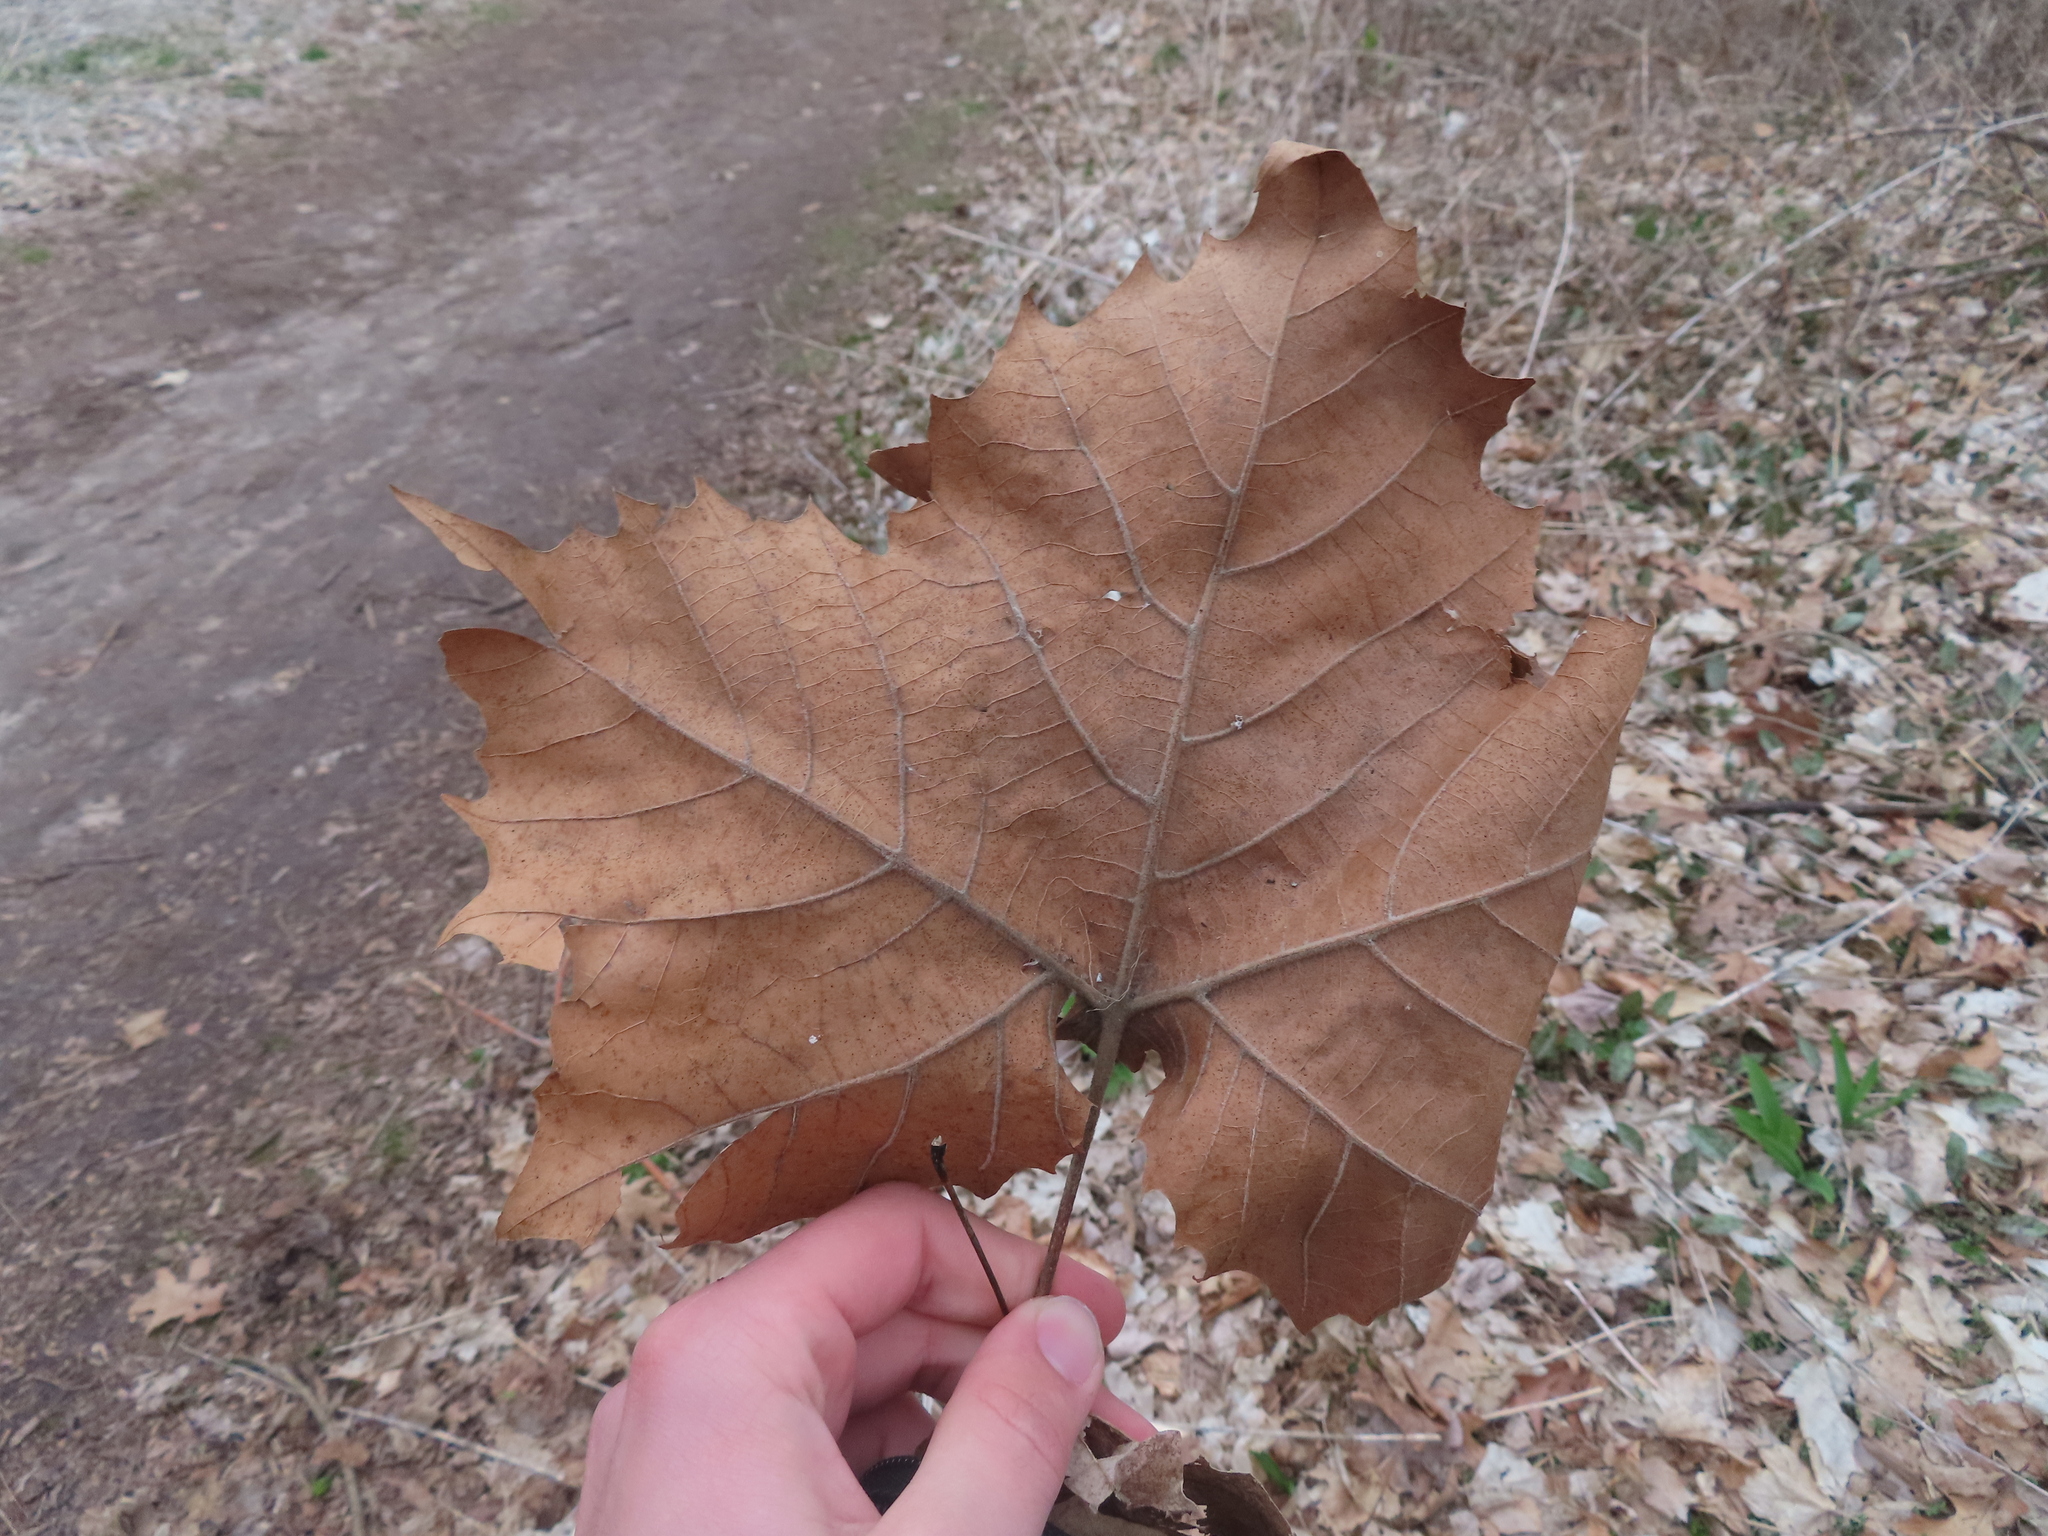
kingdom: Plantae
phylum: Tracheophyta
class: Magnoliopsida
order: Proteales
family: Platanaceae
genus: Platanus
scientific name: Platanus occidentalis
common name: American sycamore
